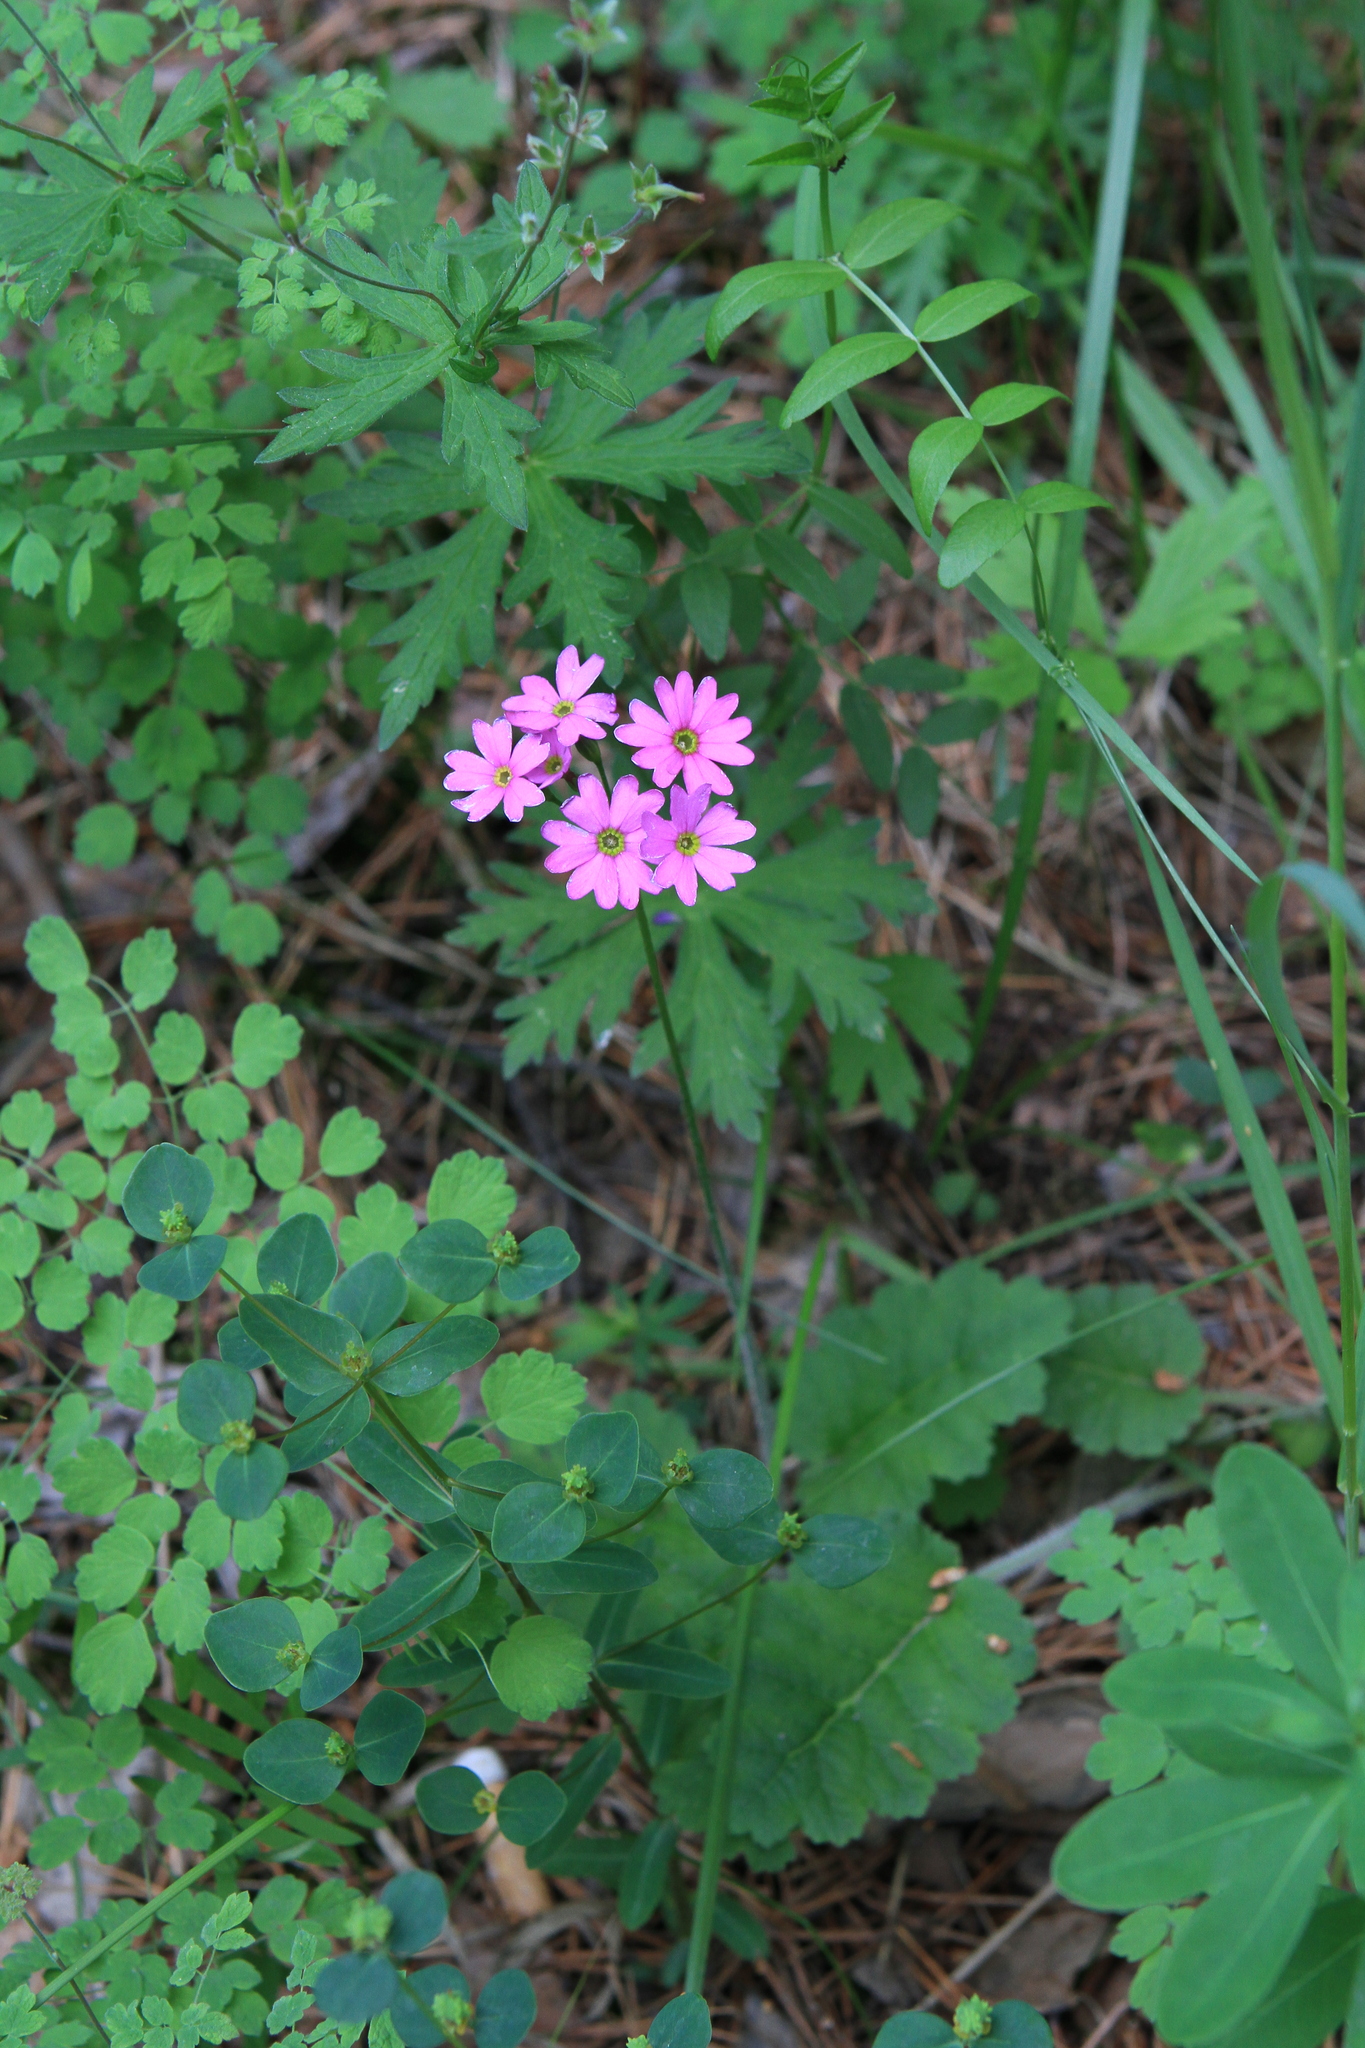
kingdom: Plantae
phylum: Tracheophyta
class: Magnoliopsida
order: Ericales
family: Primulaceae
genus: Primula
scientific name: Primula cortusoides
